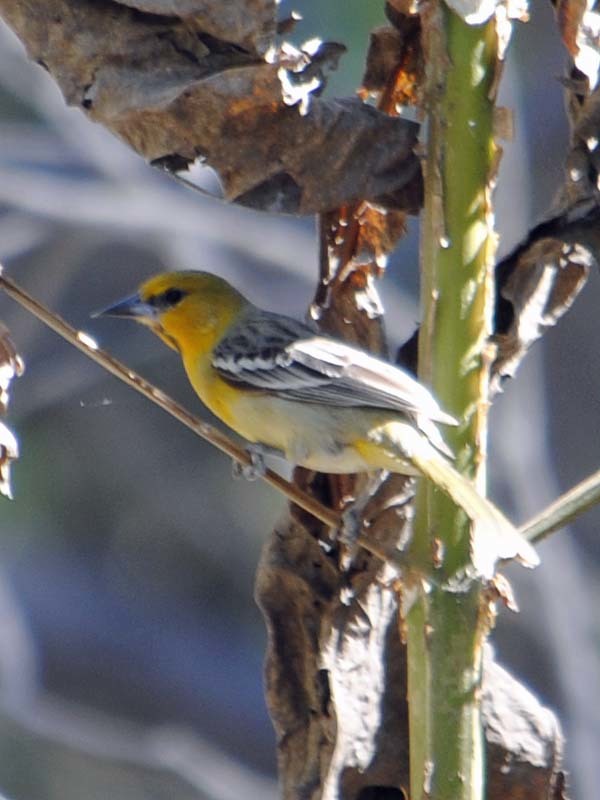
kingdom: Animalia
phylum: Chordata
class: Aves
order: Passeriformes
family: Icteridae
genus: Icterus
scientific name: Icterus bullockii
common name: Bullock's oriole
